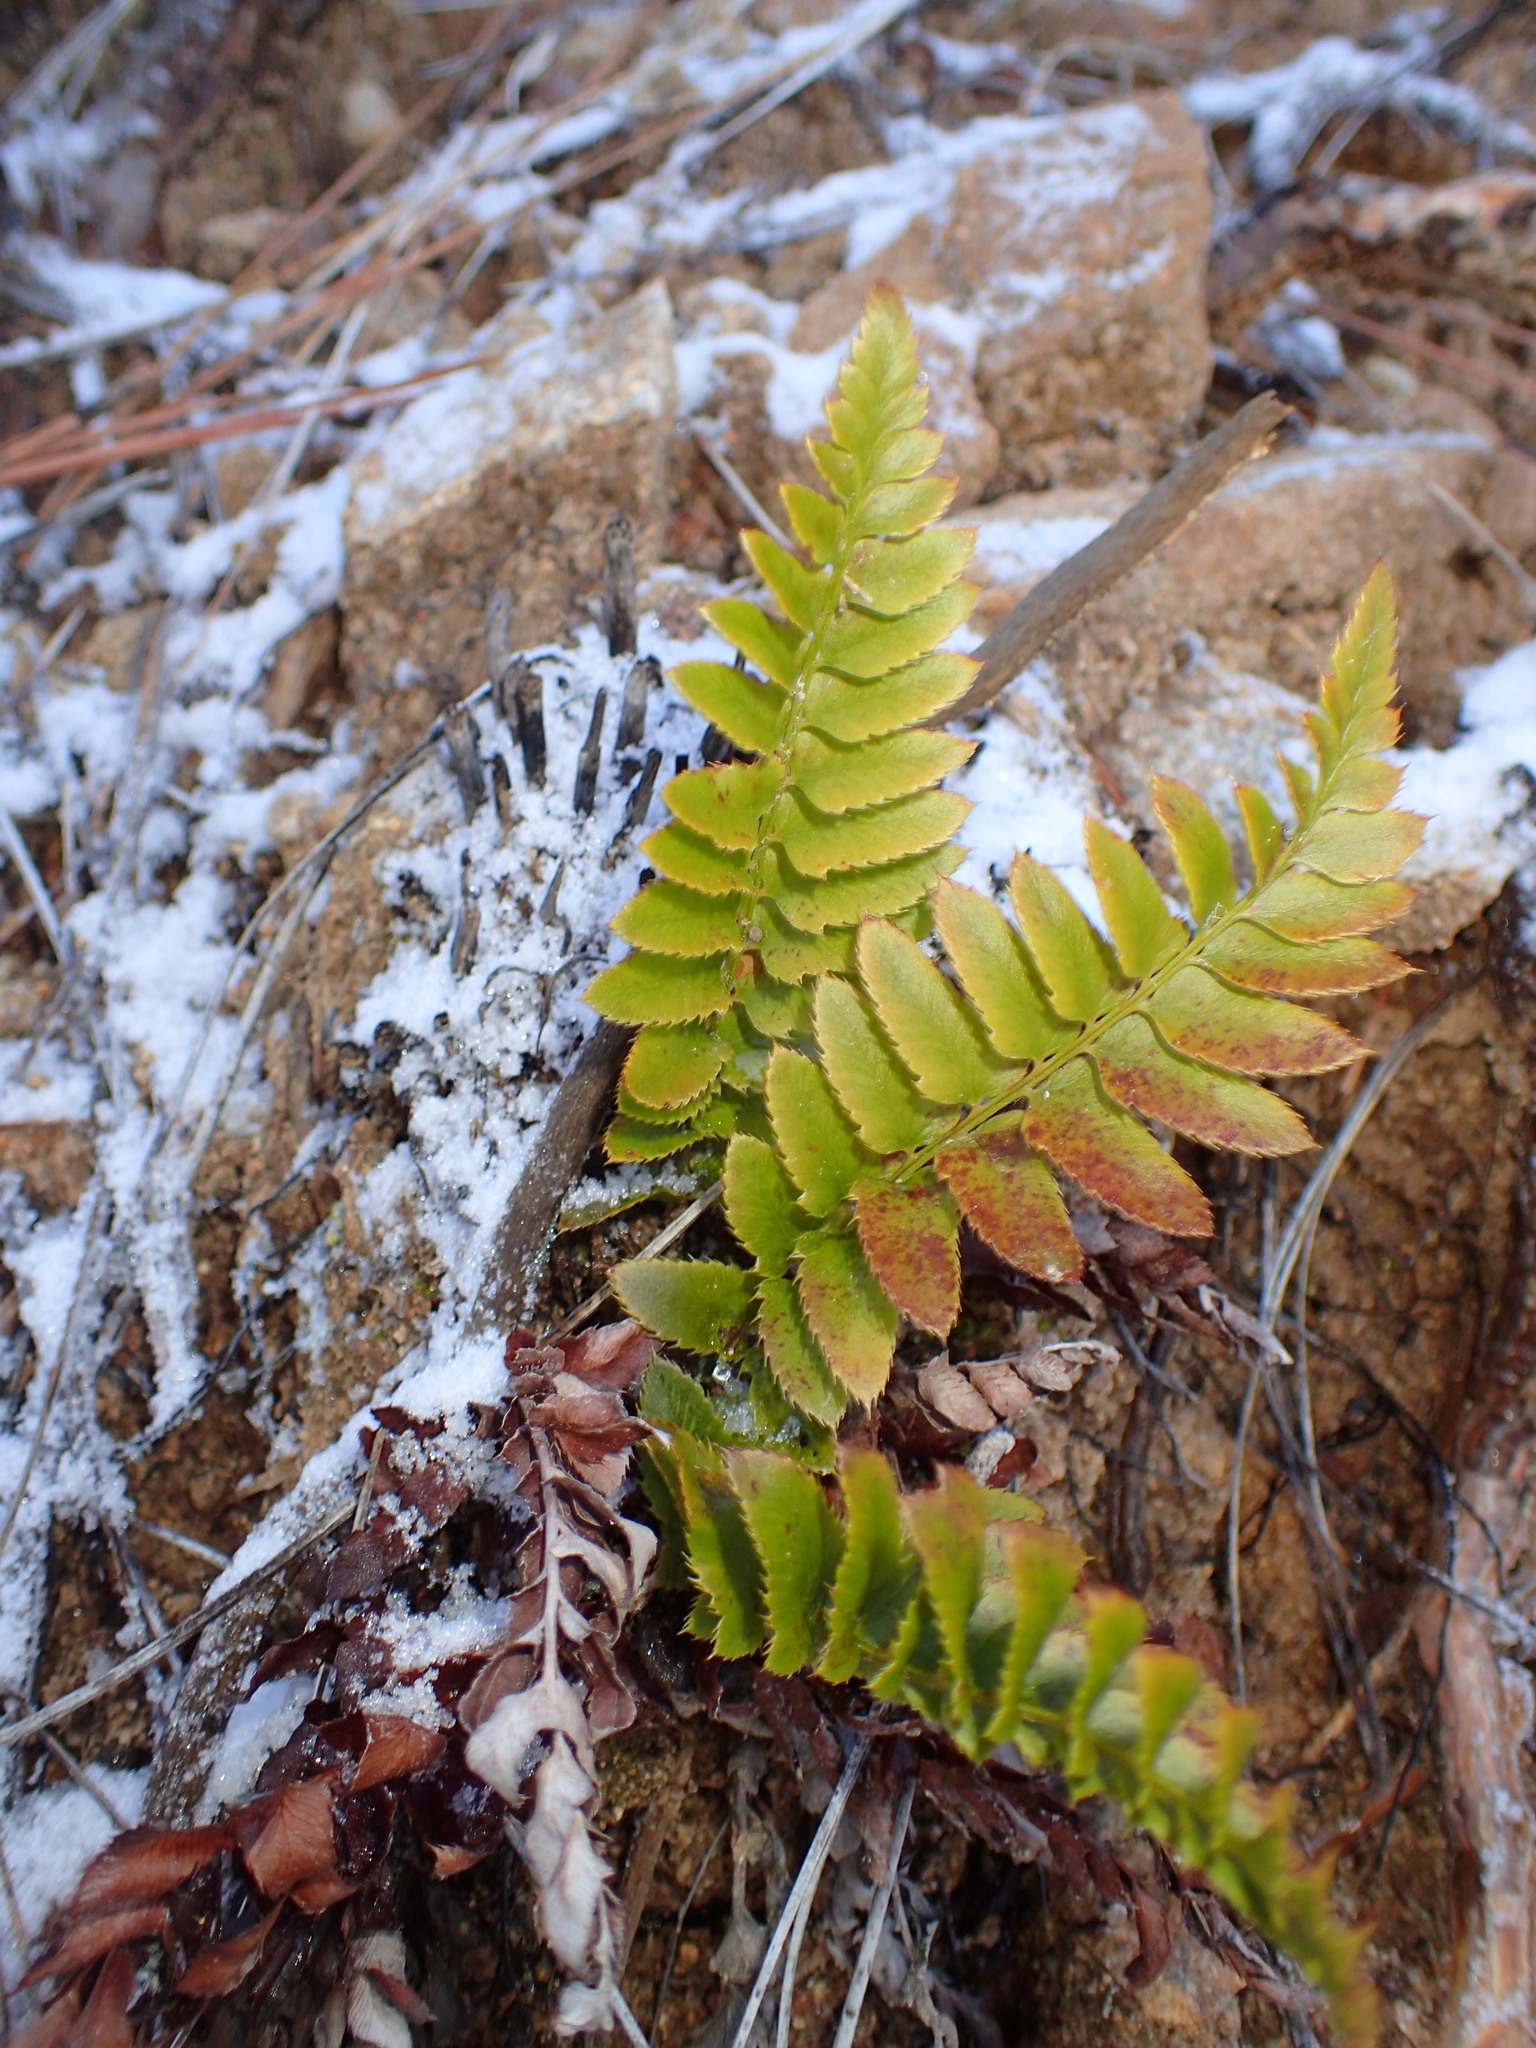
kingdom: Plantae
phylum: Tracheophyta
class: Polypodiopsida
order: Polypodiales
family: Dryopteridaceae
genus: Polystichum
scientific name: Polystichum munitum
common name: Western sword-fern
